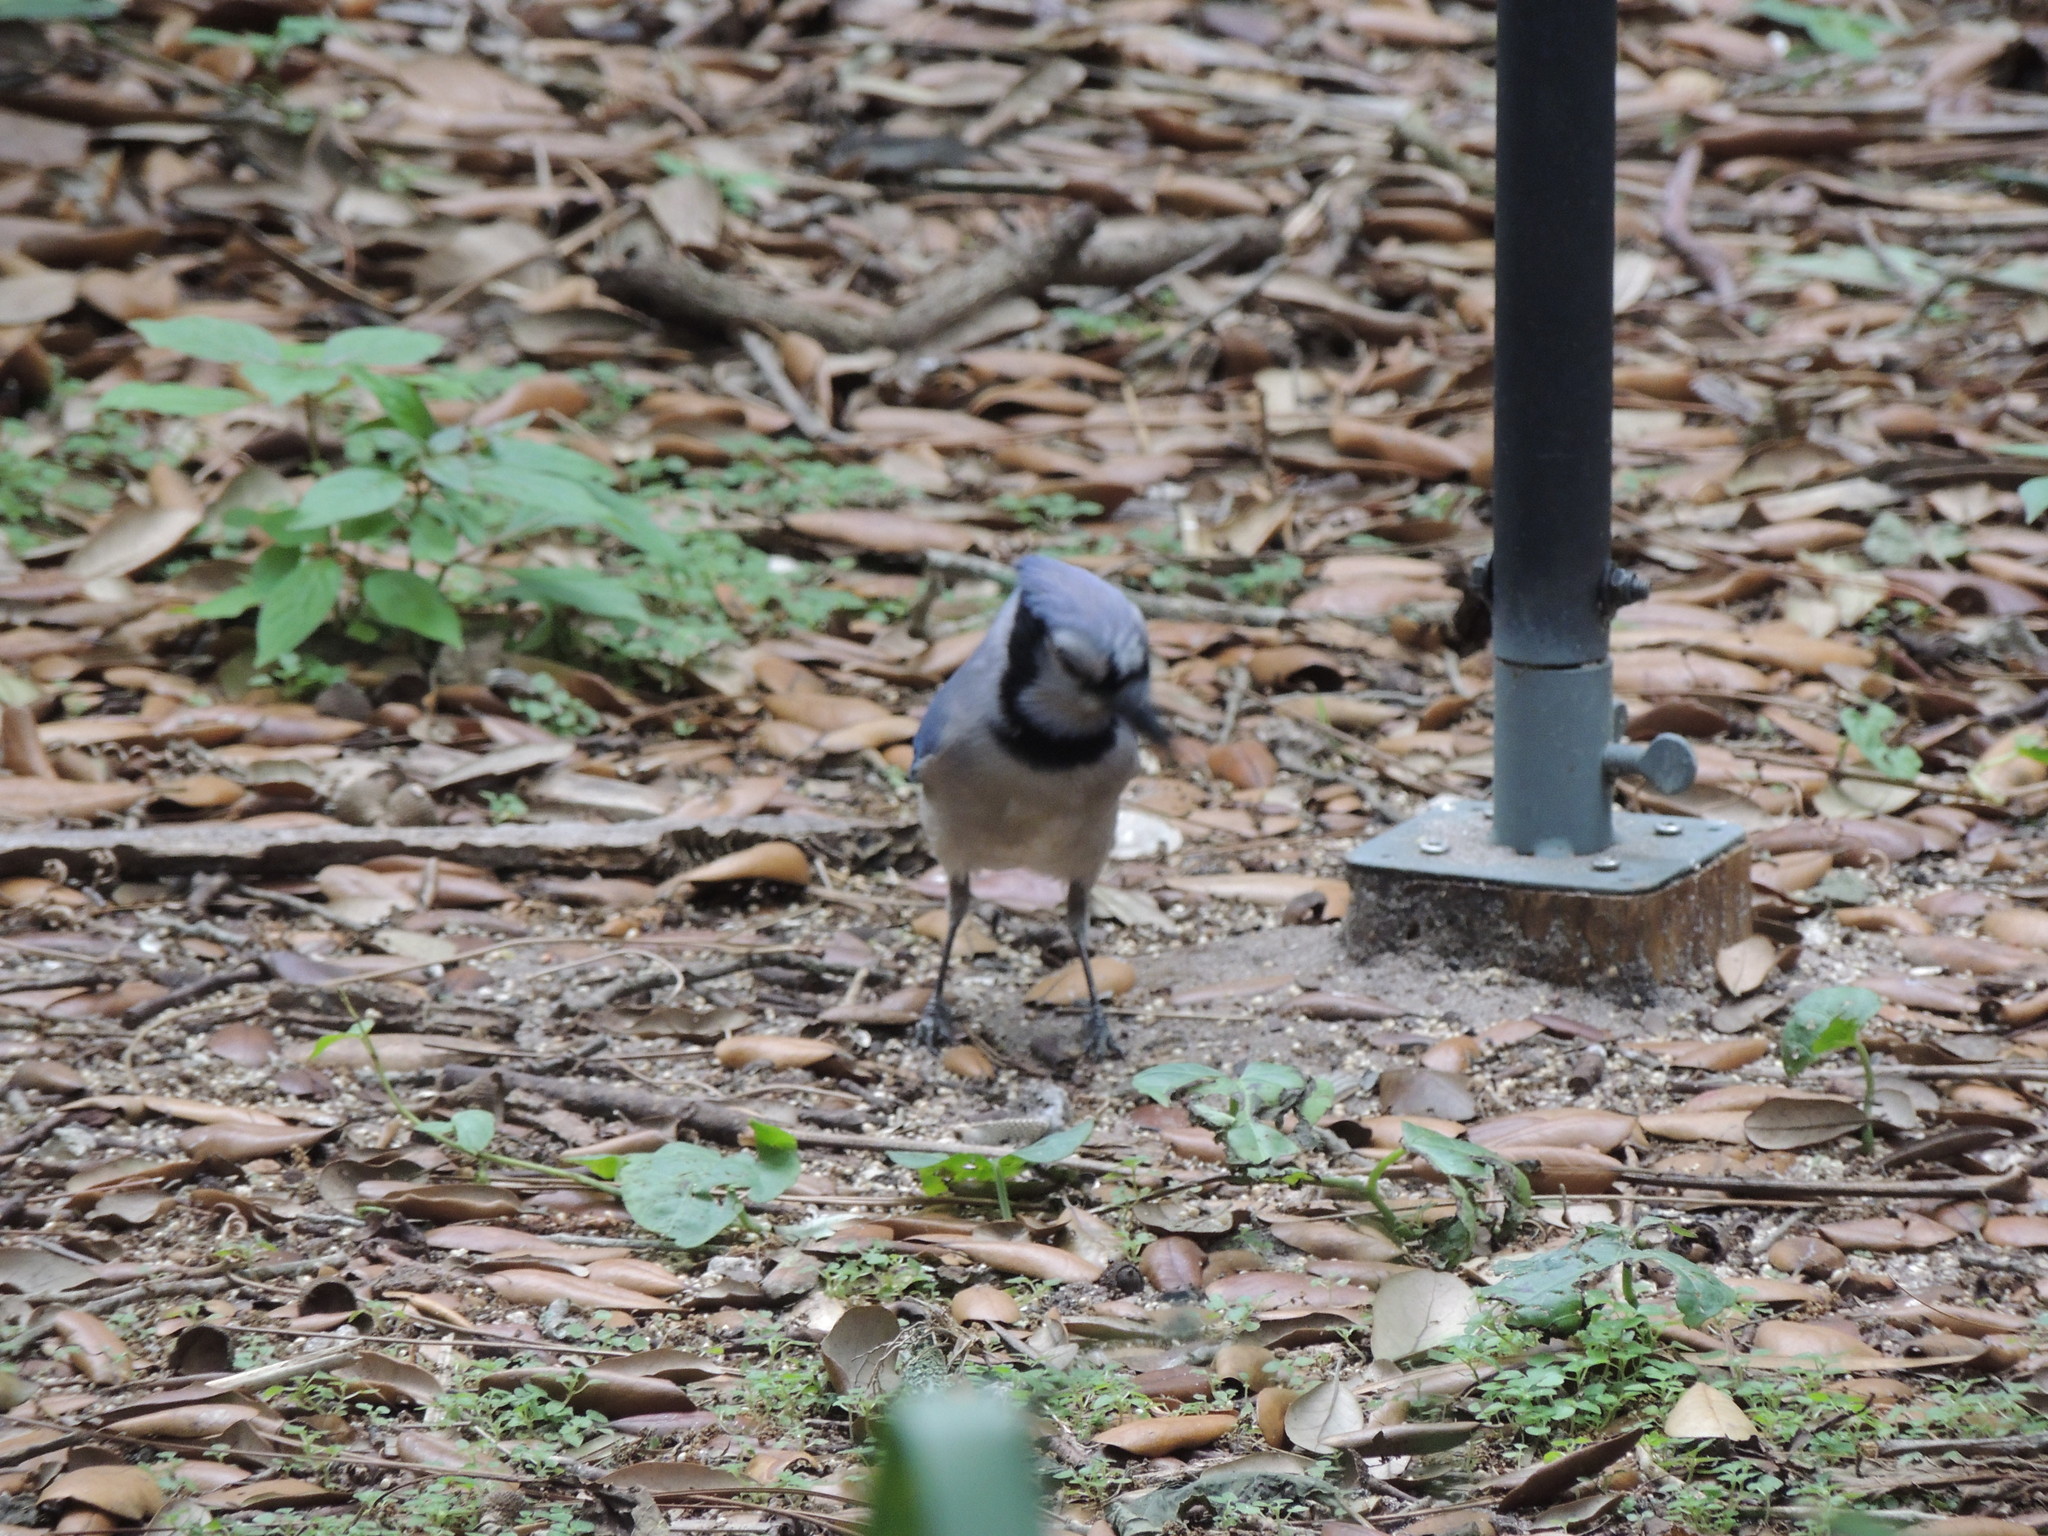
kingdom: Animalia
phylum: Chordata
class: Aves
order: Passeriformes
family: Corvidae
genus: Cyanocitta
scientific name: Cyanocitta cristata
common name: Blue jay
